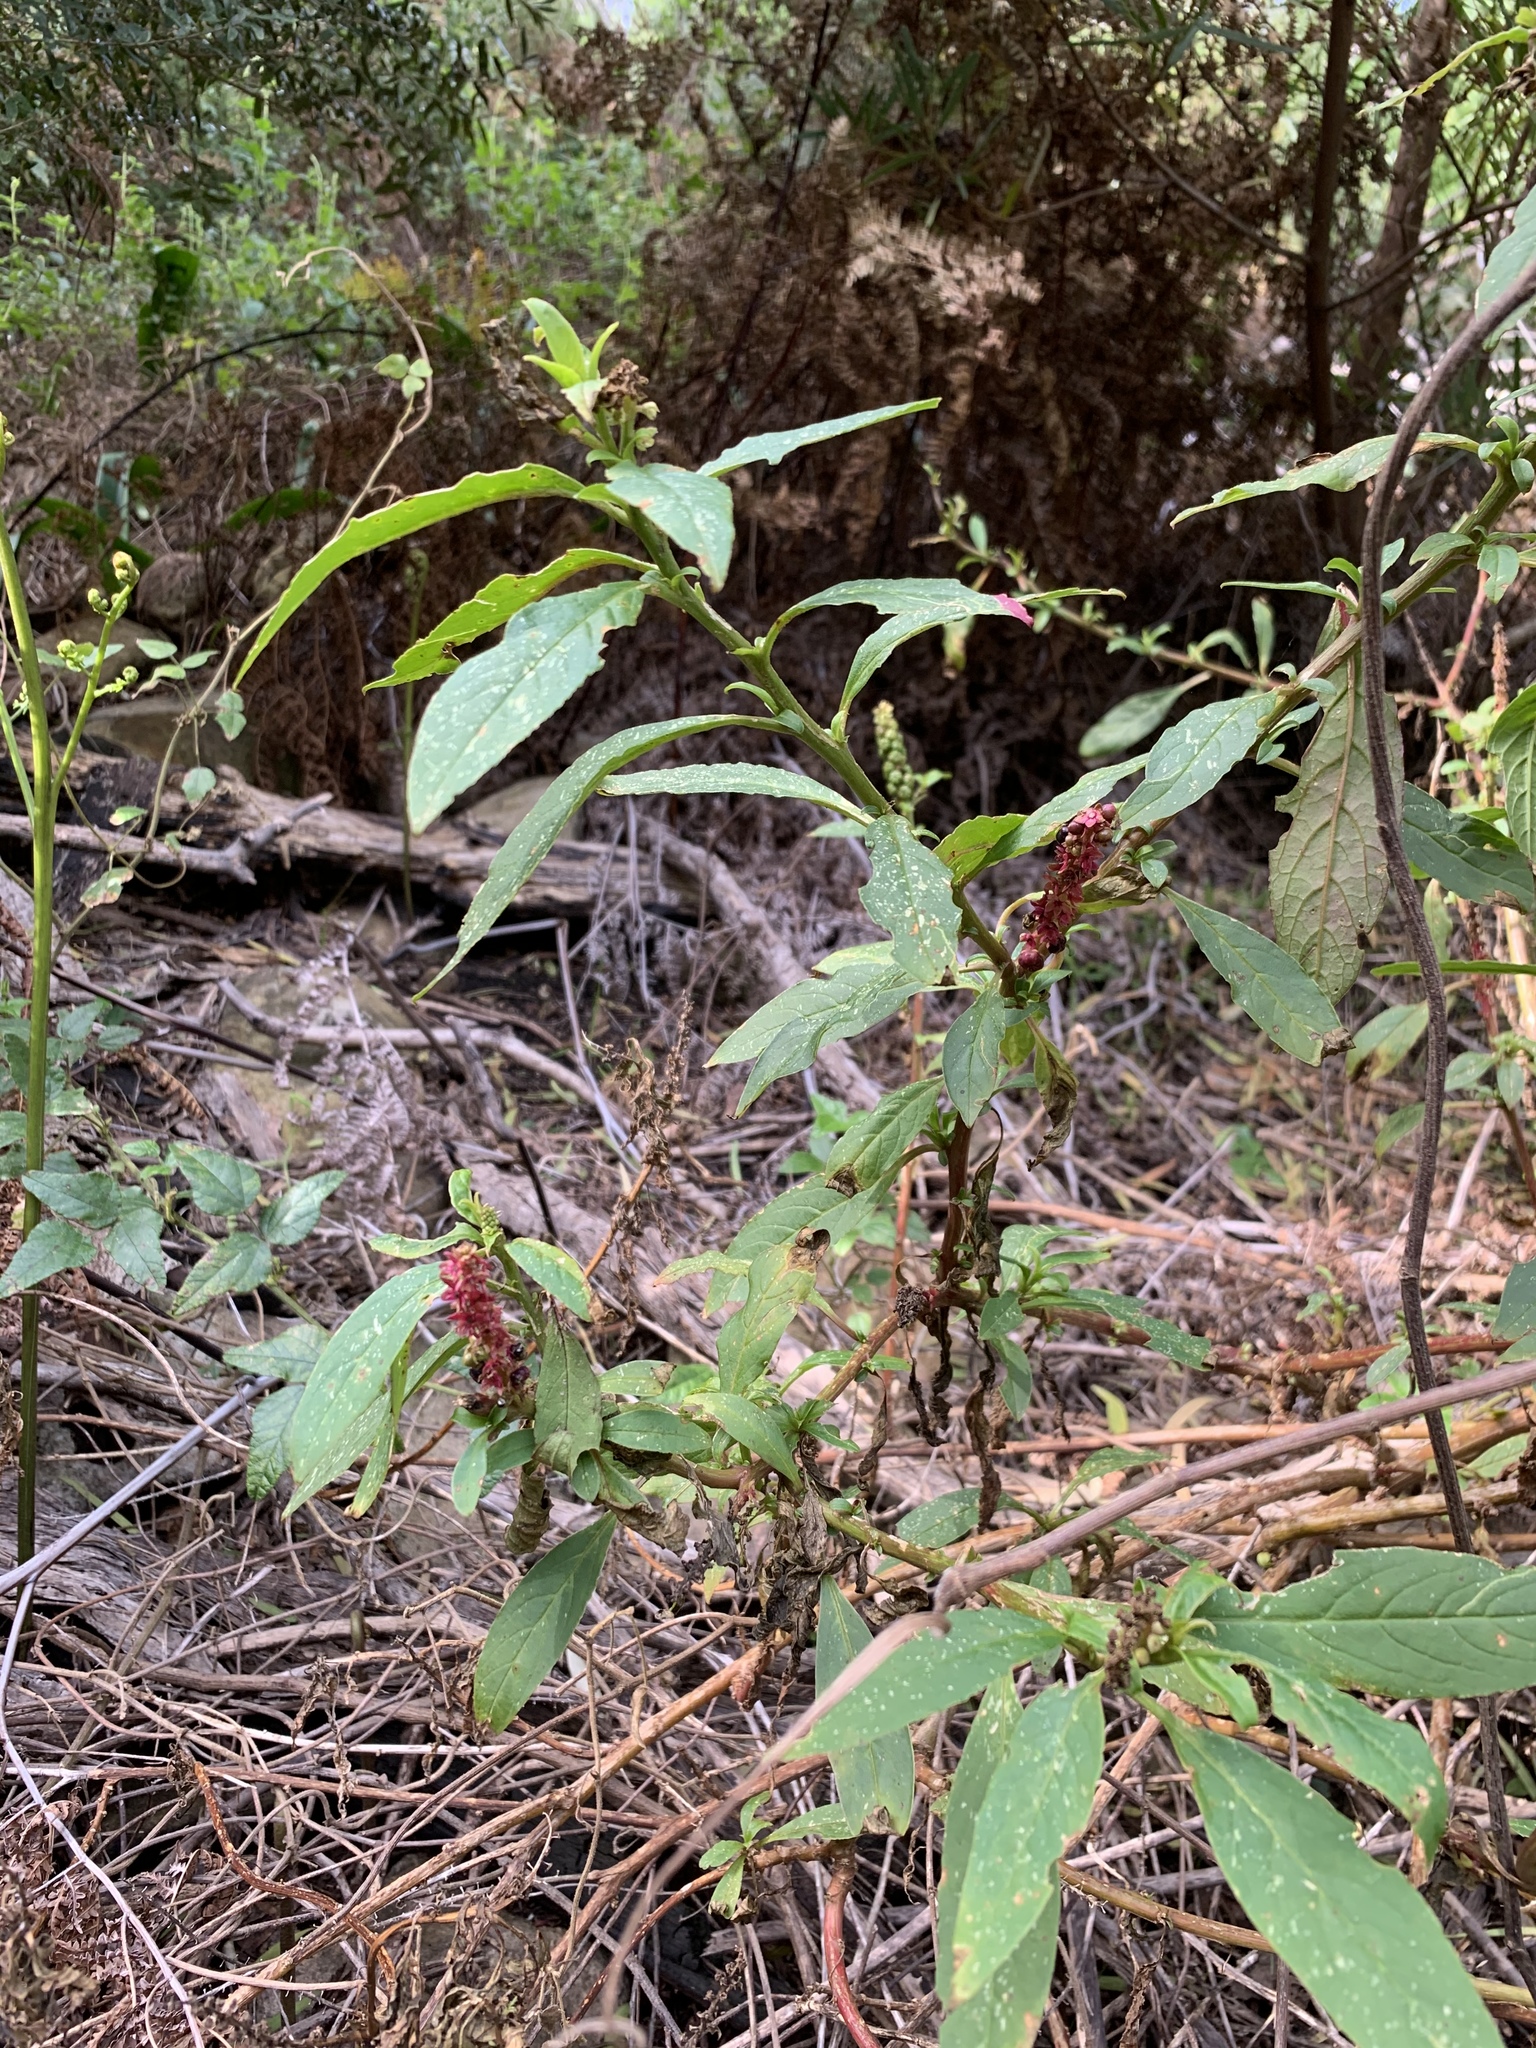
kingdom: Plantae
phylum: Tracheophyta
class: Magnoliopsida
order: Caryophyllales
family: Phytolaccaceae
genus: Phytolacca
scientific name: Phytolacca icosandra
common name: Button pokeweed
